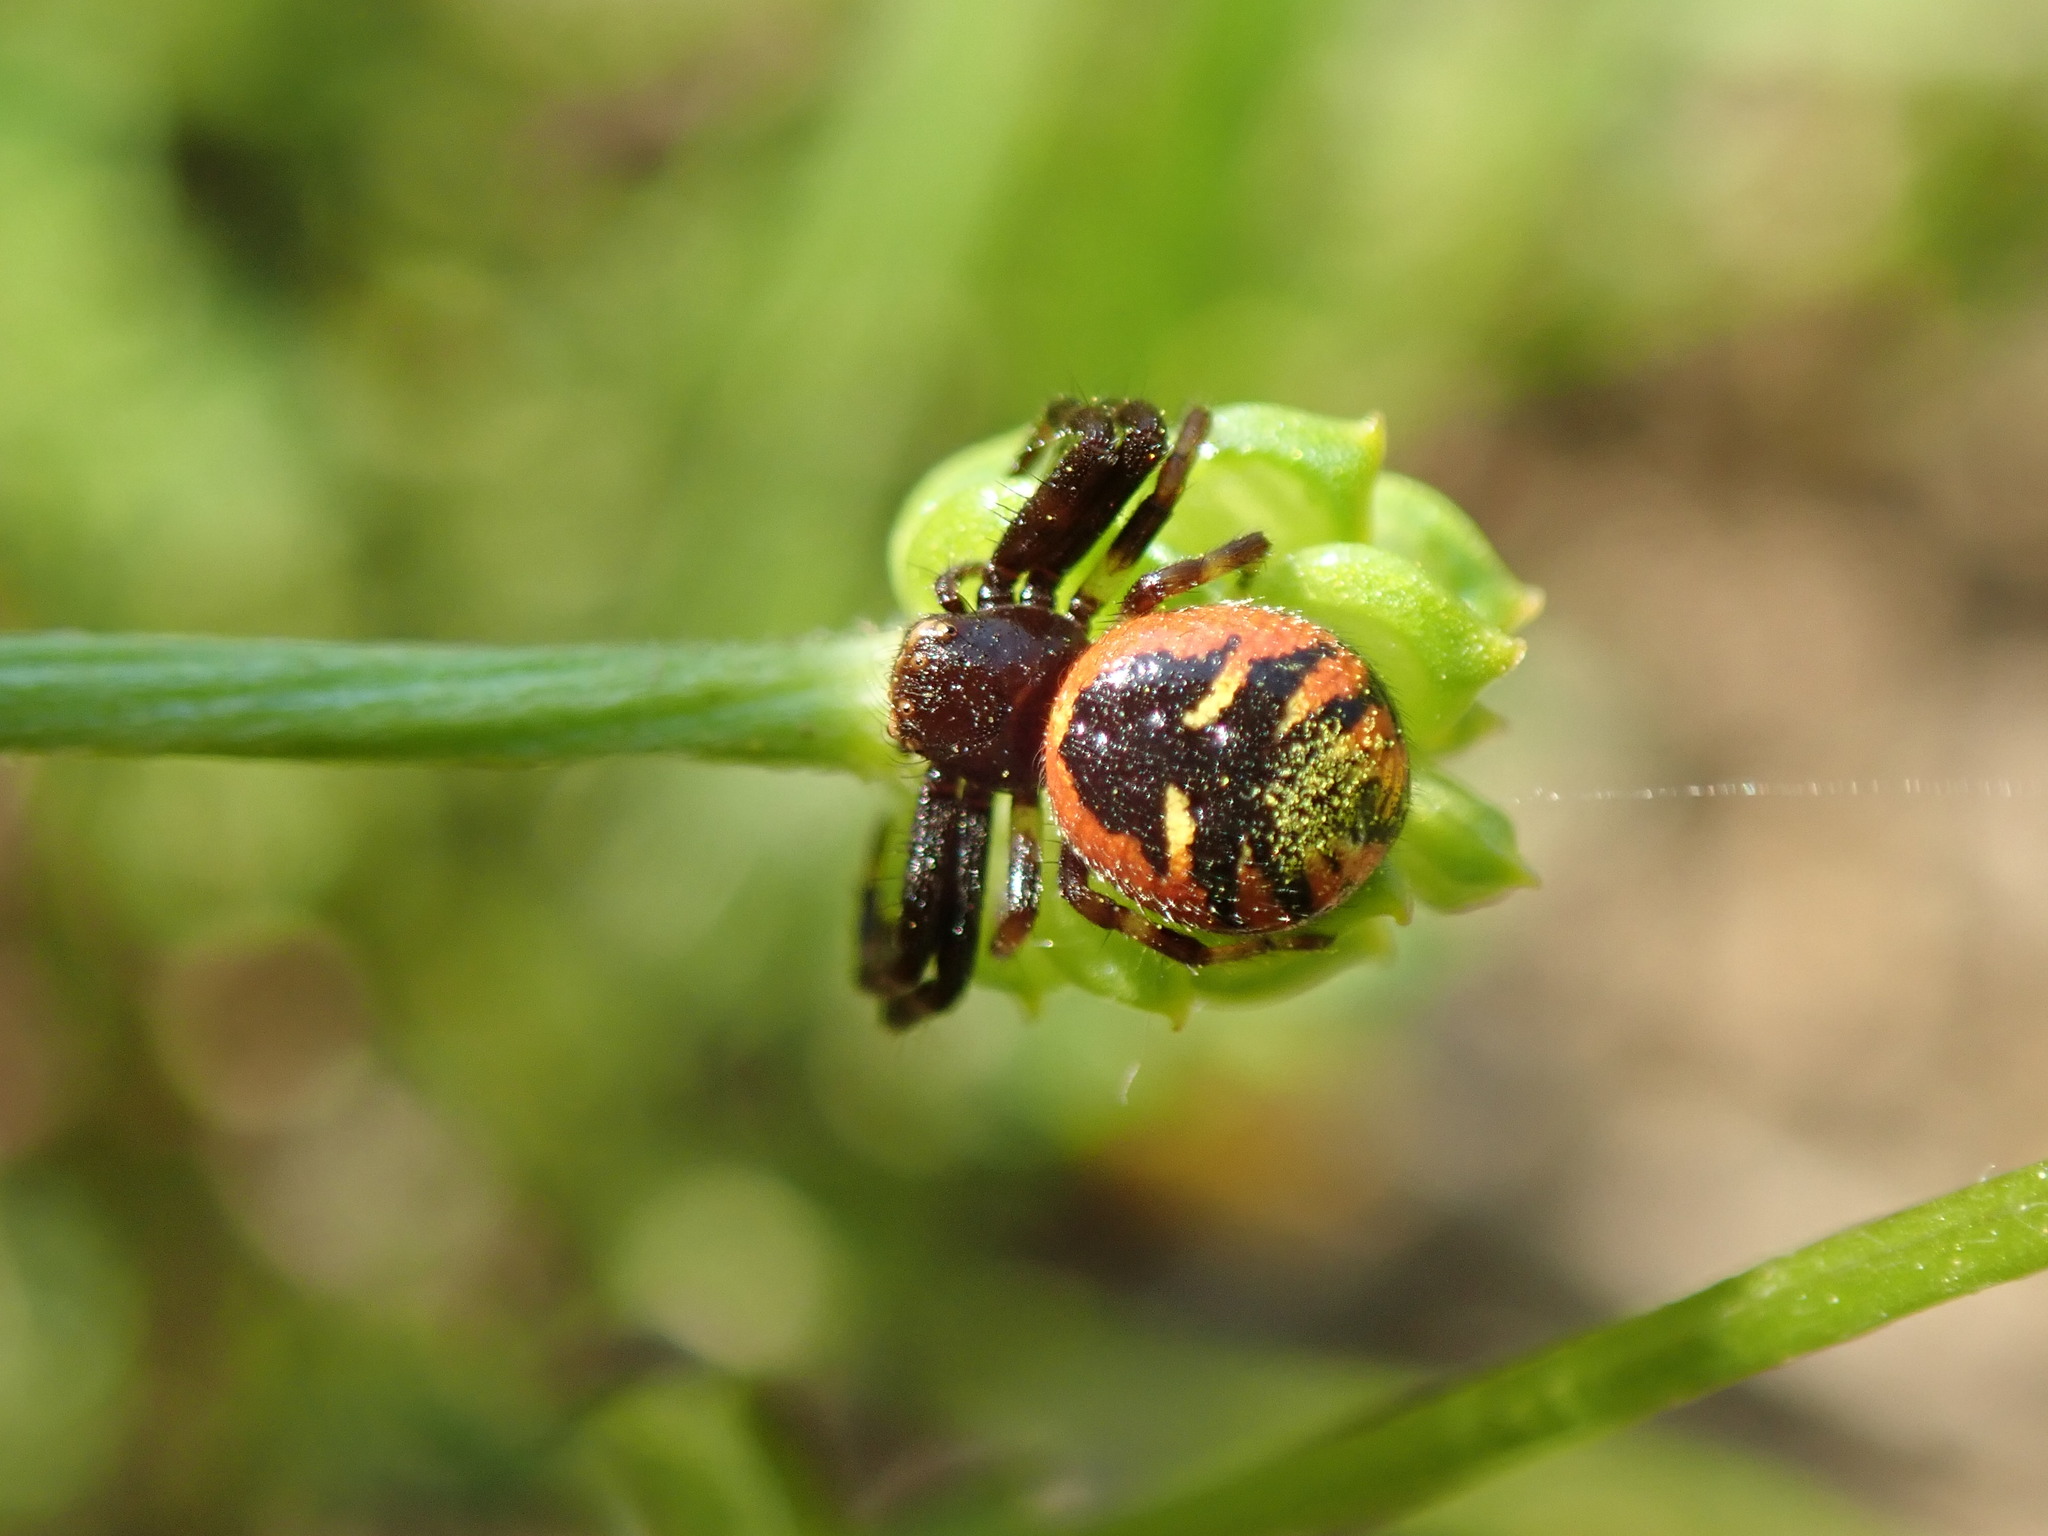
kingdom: Animalia
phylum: Arthropoda
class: Arachnida
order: Araneae
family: Thomisidae
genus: Synema
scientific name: Synema globosum
